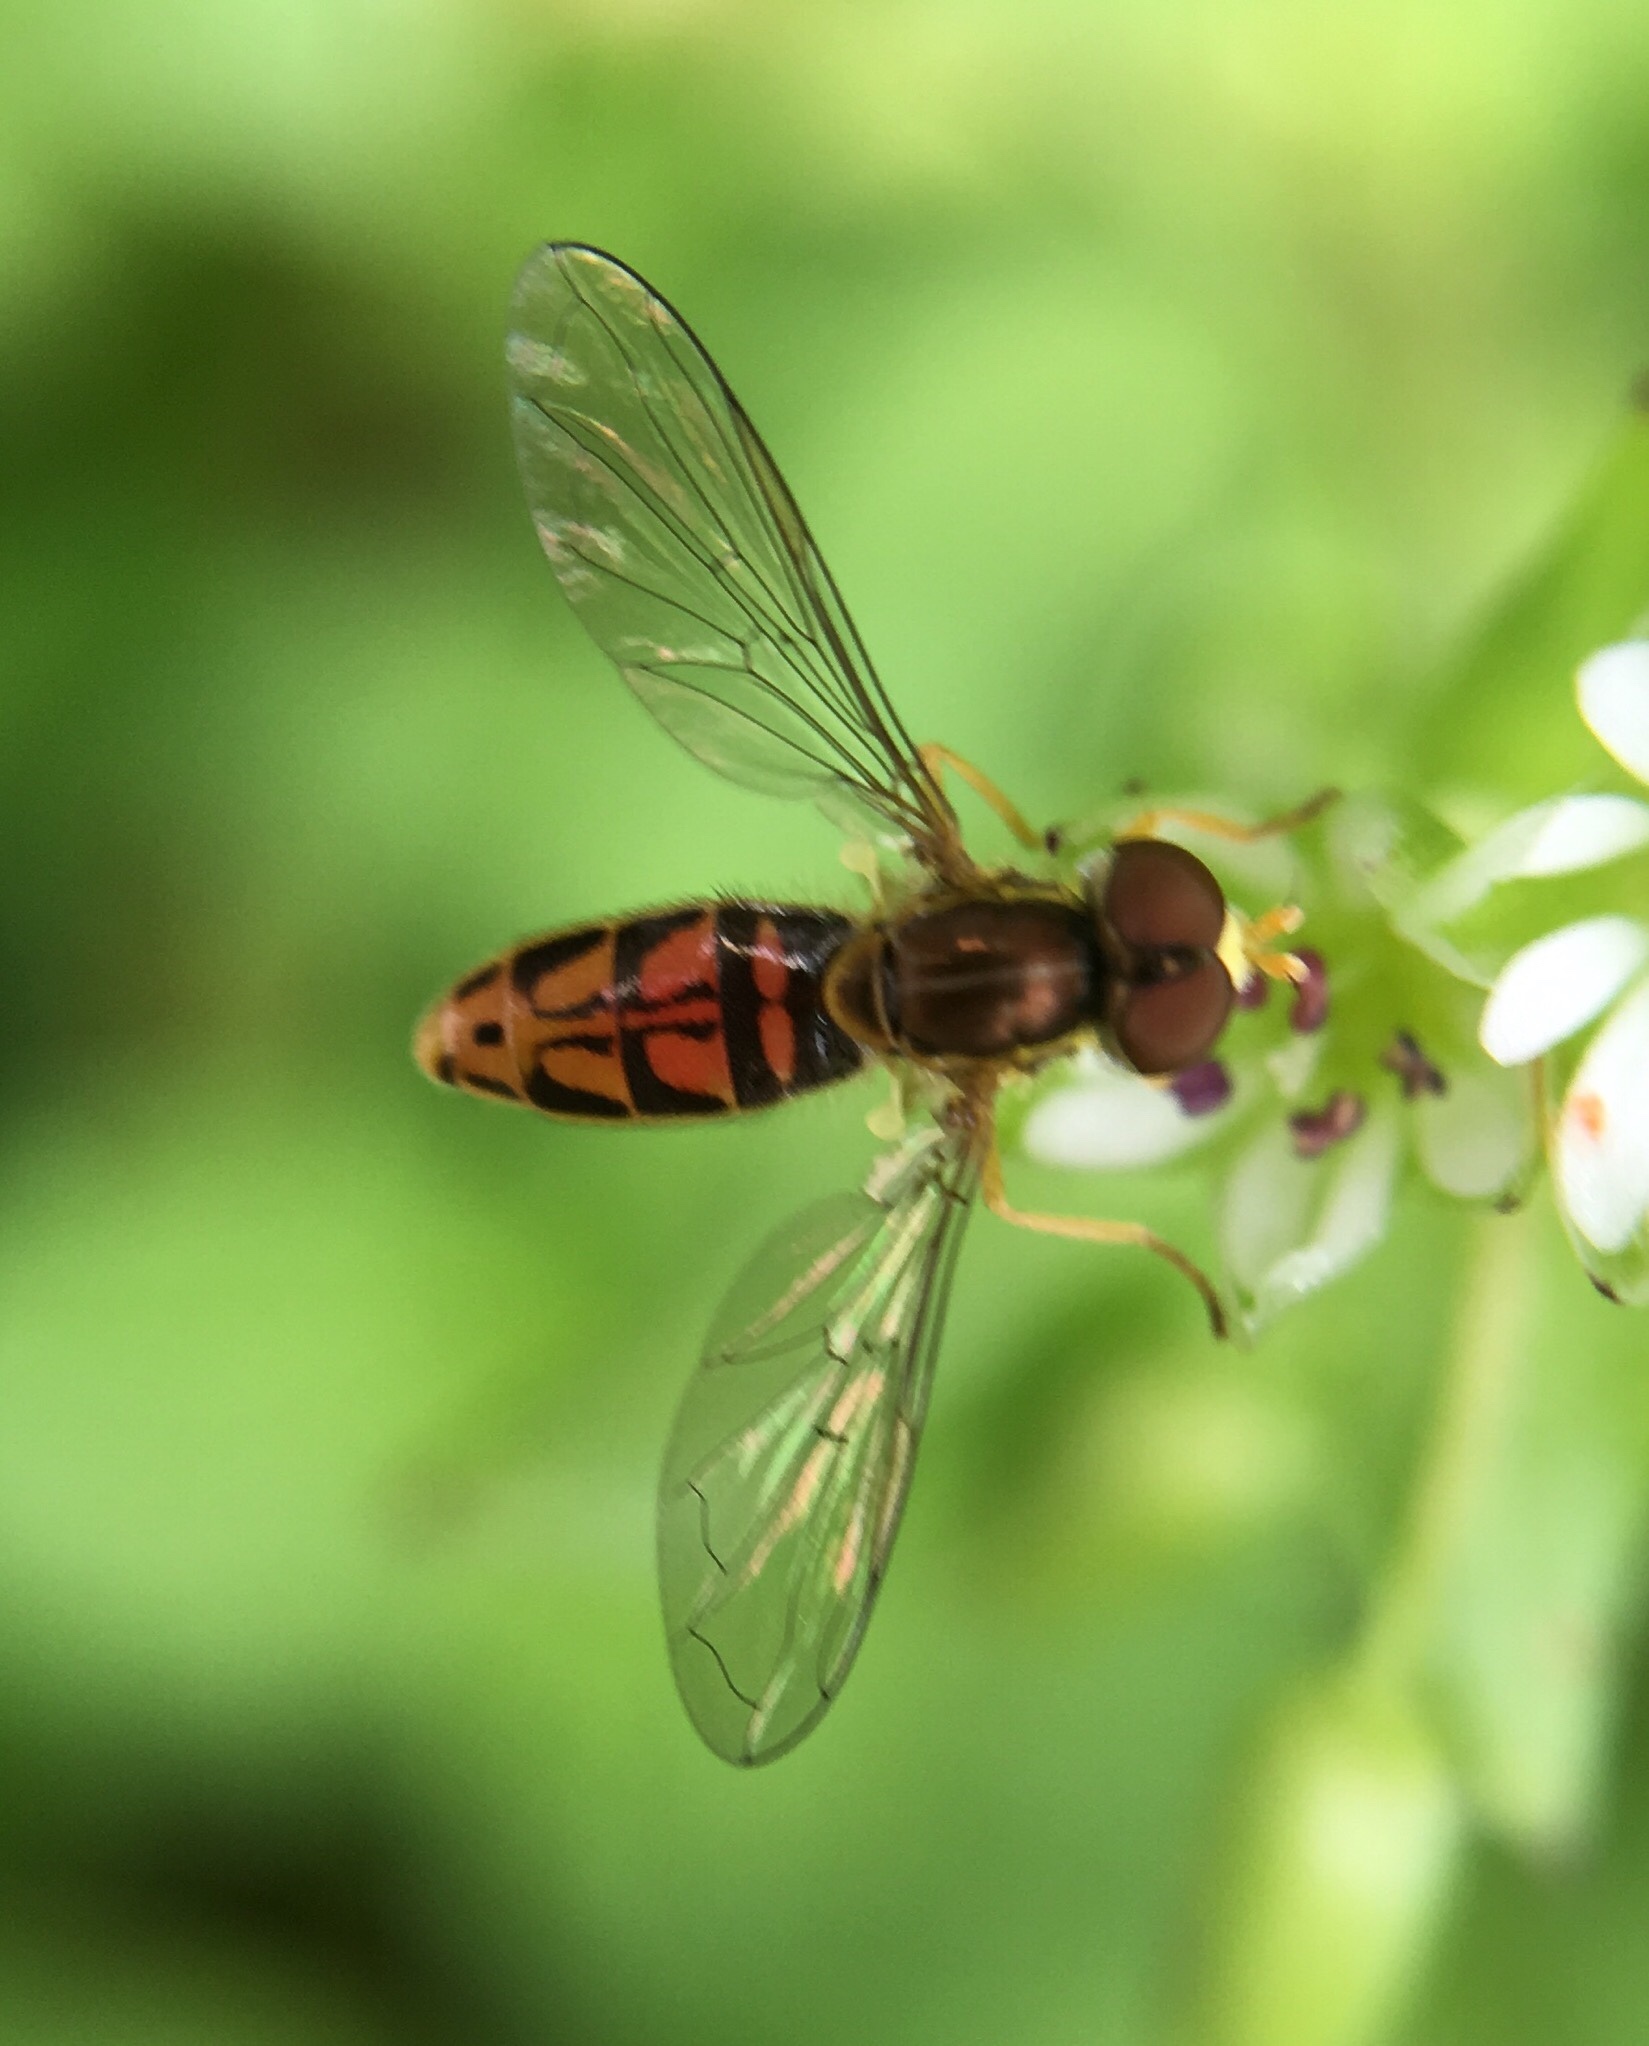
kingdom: Animalia
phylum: Arthropoda
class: Insecta
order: Diptera
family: Syrphidae
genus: Toxomerus
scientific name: Toxomerus marginatus
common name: Syrphid fly
